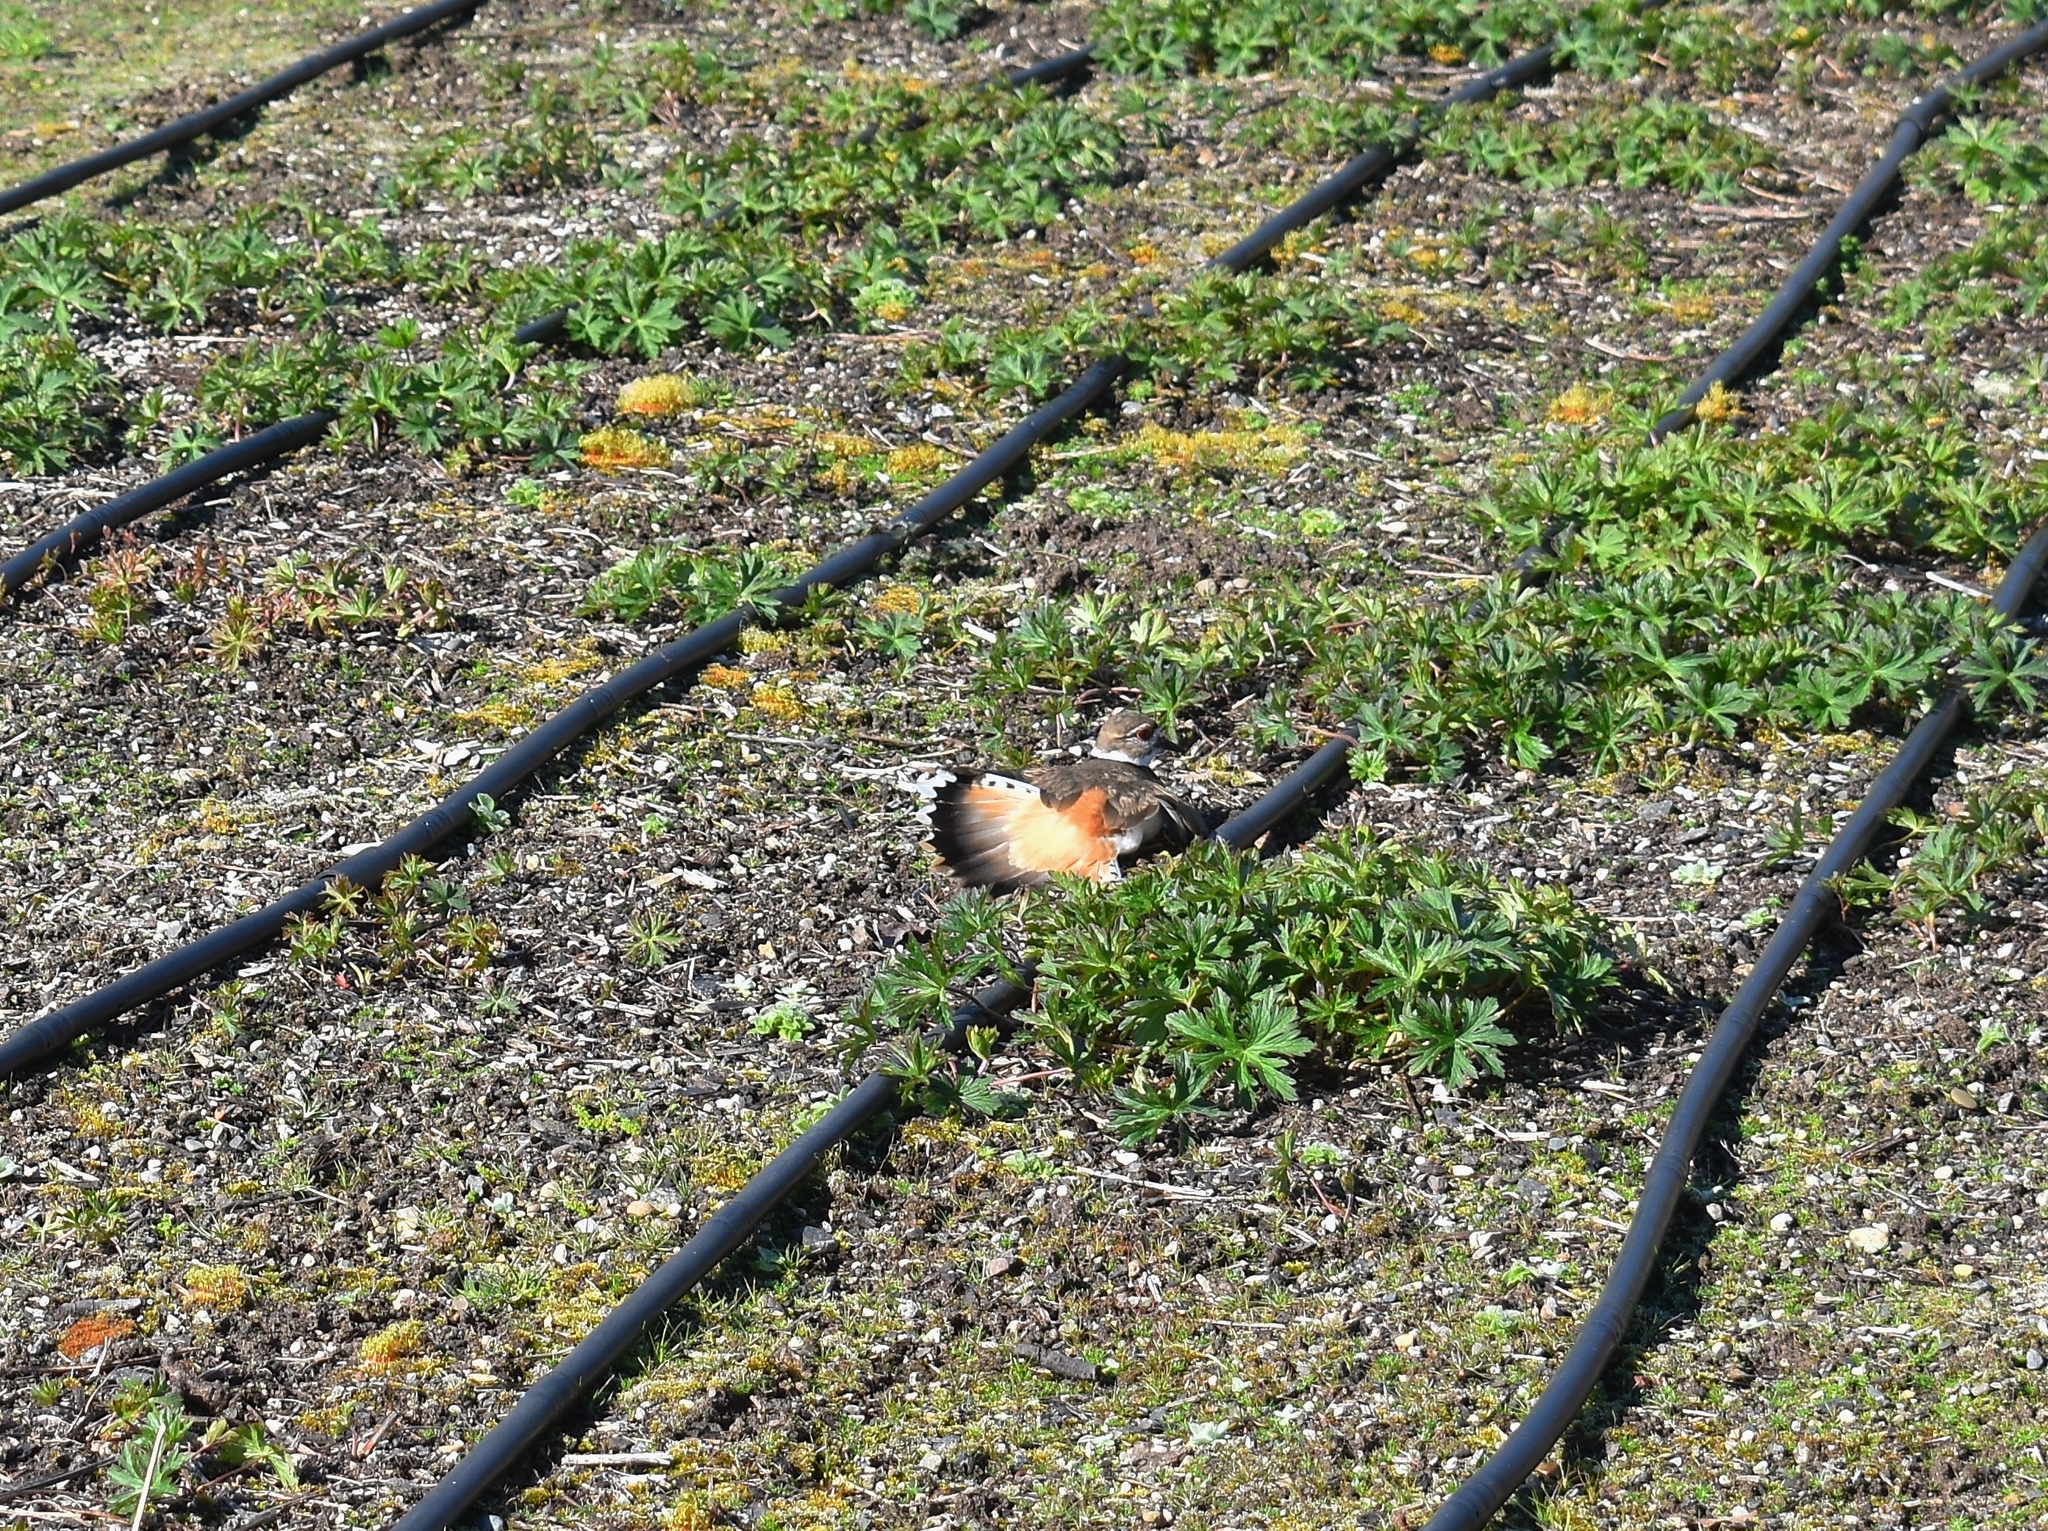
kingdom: Animalia
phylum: Chordata
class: Aves
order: Charadriiformes
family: Charadriidae
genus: Charadrius
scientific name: Charadrius vociferus
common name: Killdeer
